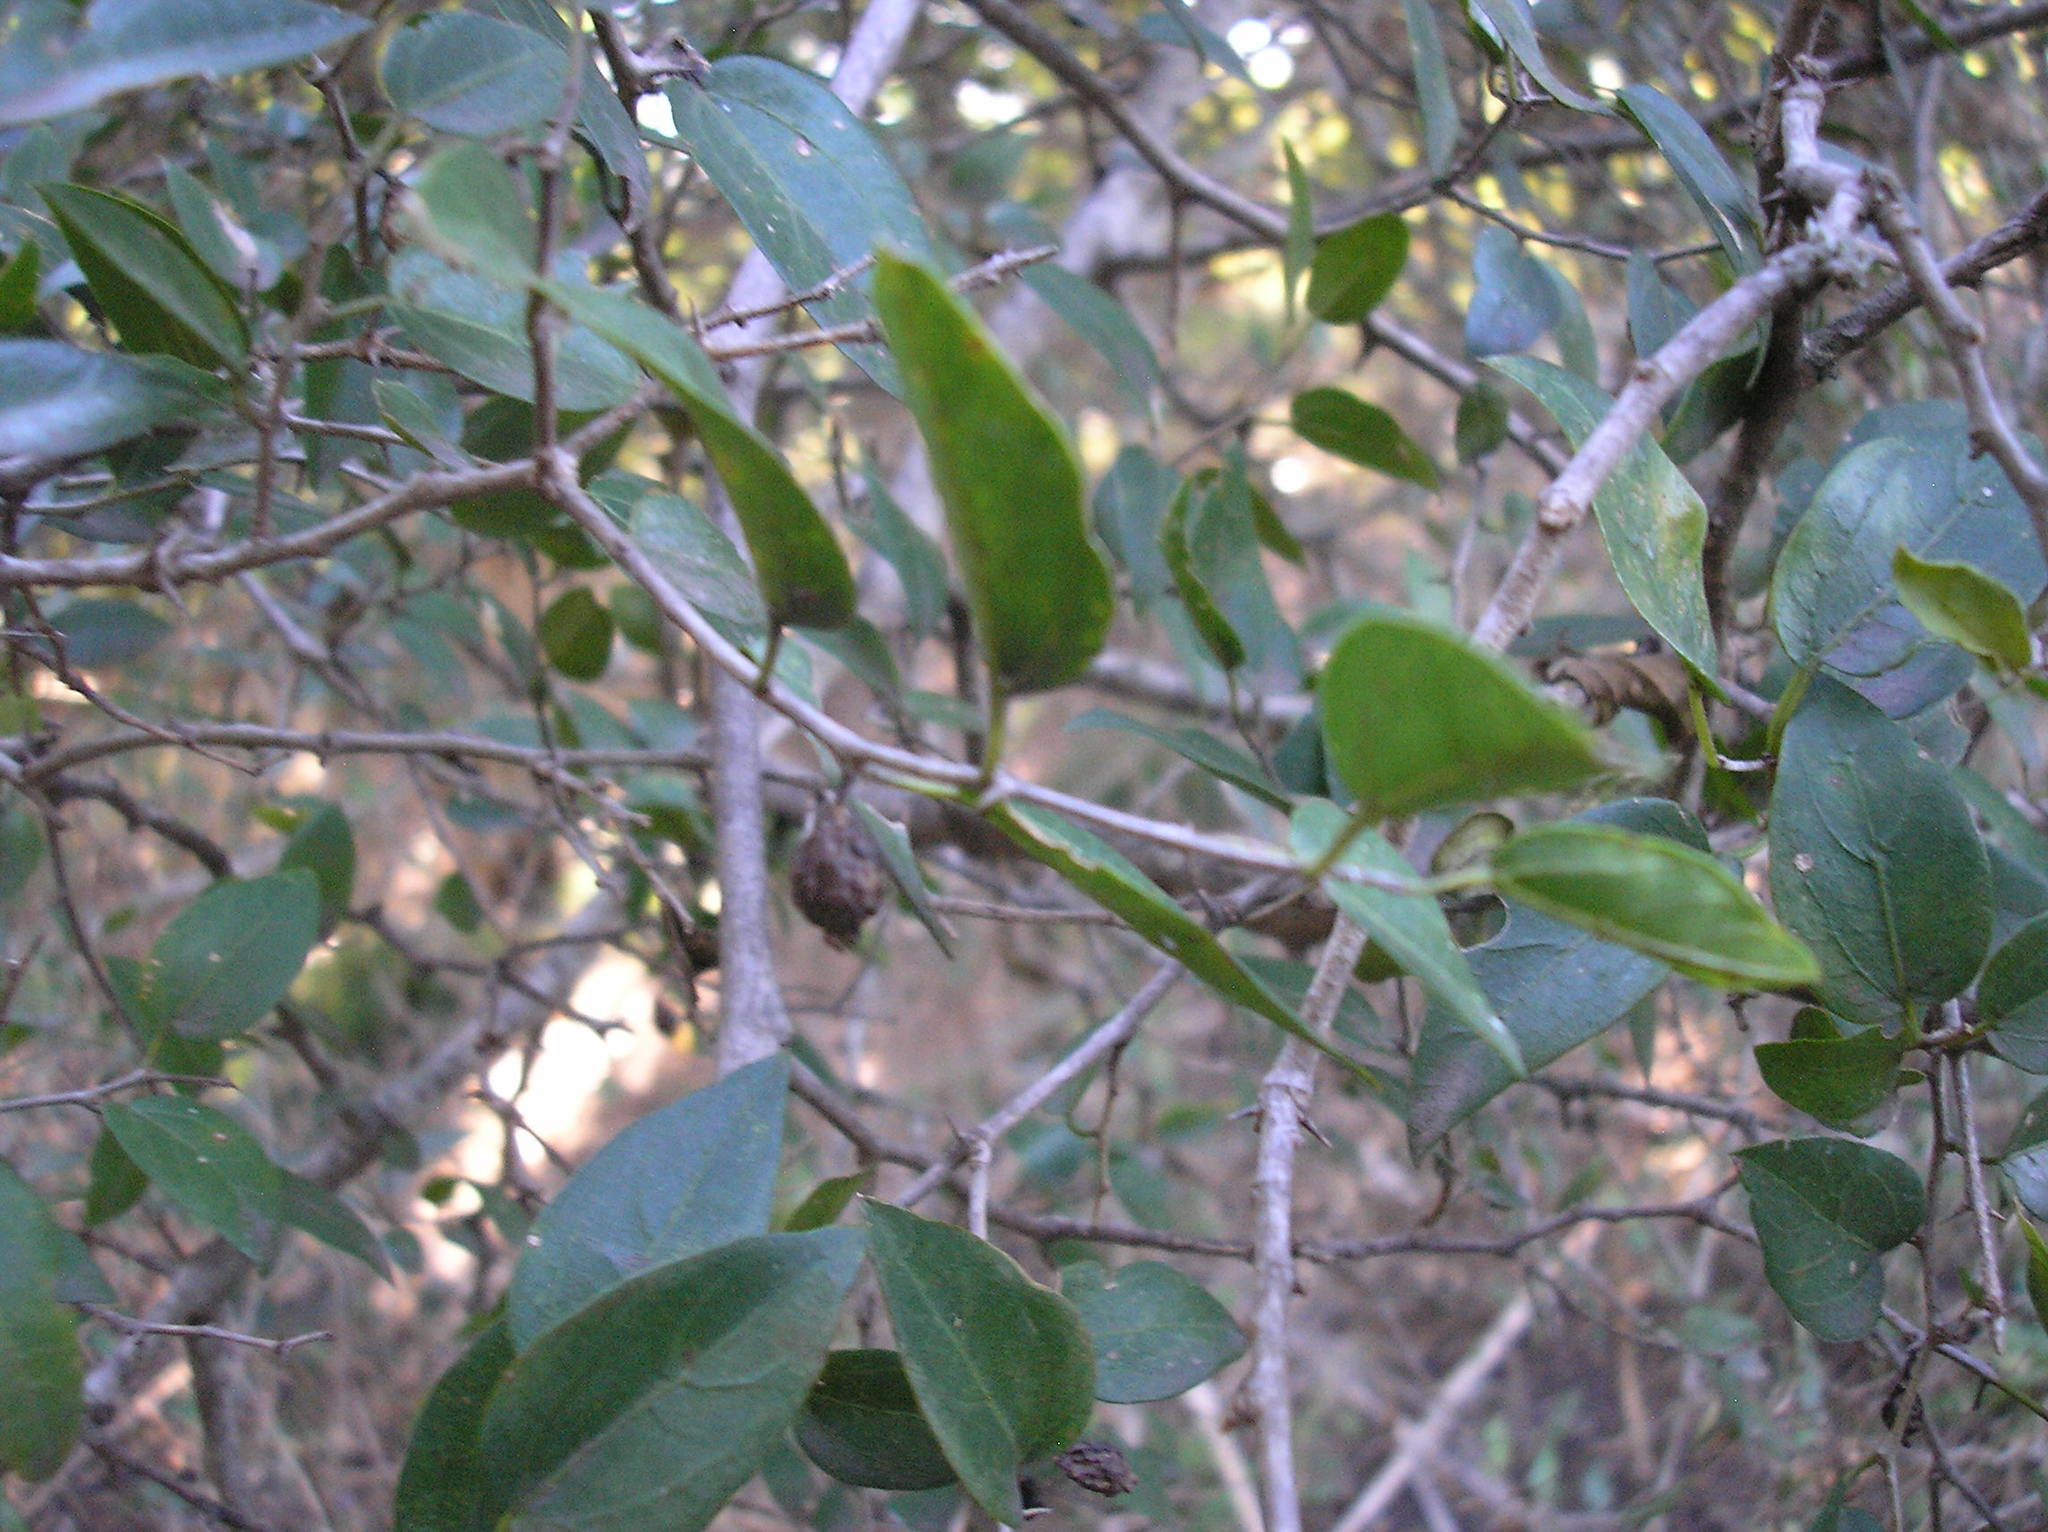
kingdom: Plantae
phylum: Tracheophyta
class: Magnoliopsida
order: Rosales
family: Cannabaceae
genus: Celtis
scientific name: Celtis tala
